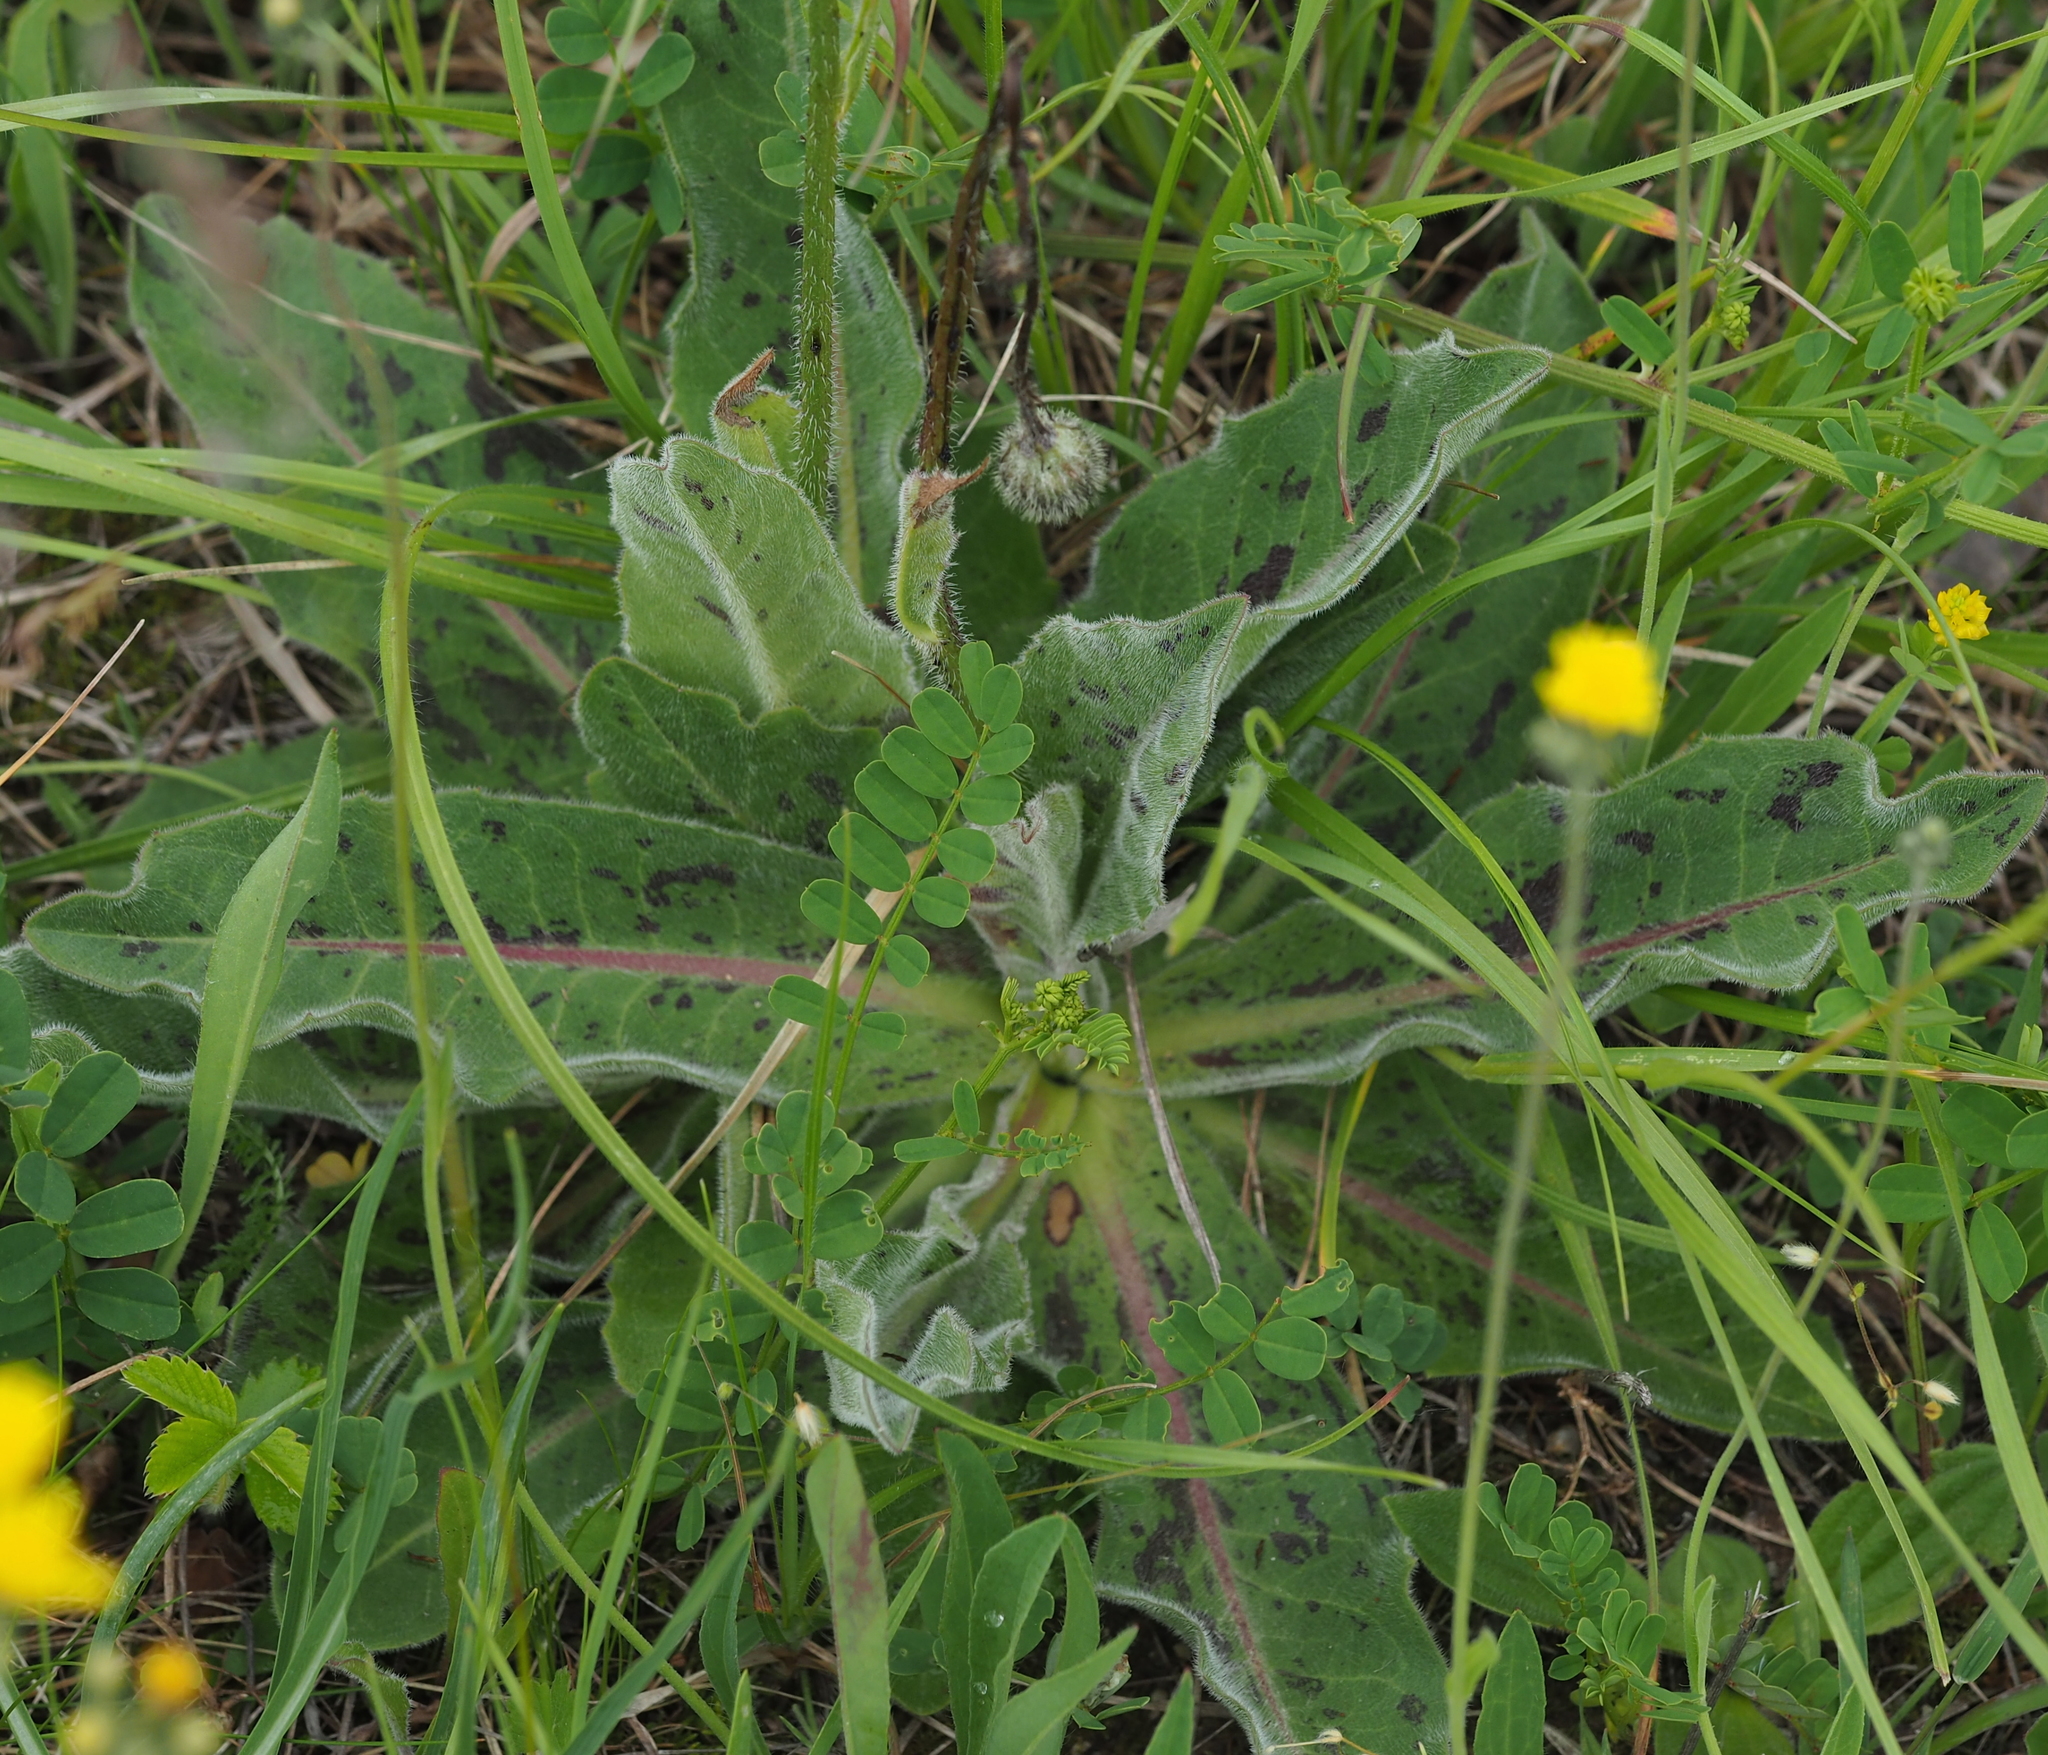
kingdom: Plantae
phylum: Tracheophyta
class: Magnoliopsida
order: Asterales
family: Asteraceae
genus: Trommsdorffia
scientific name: Trommsdorffia maculata
